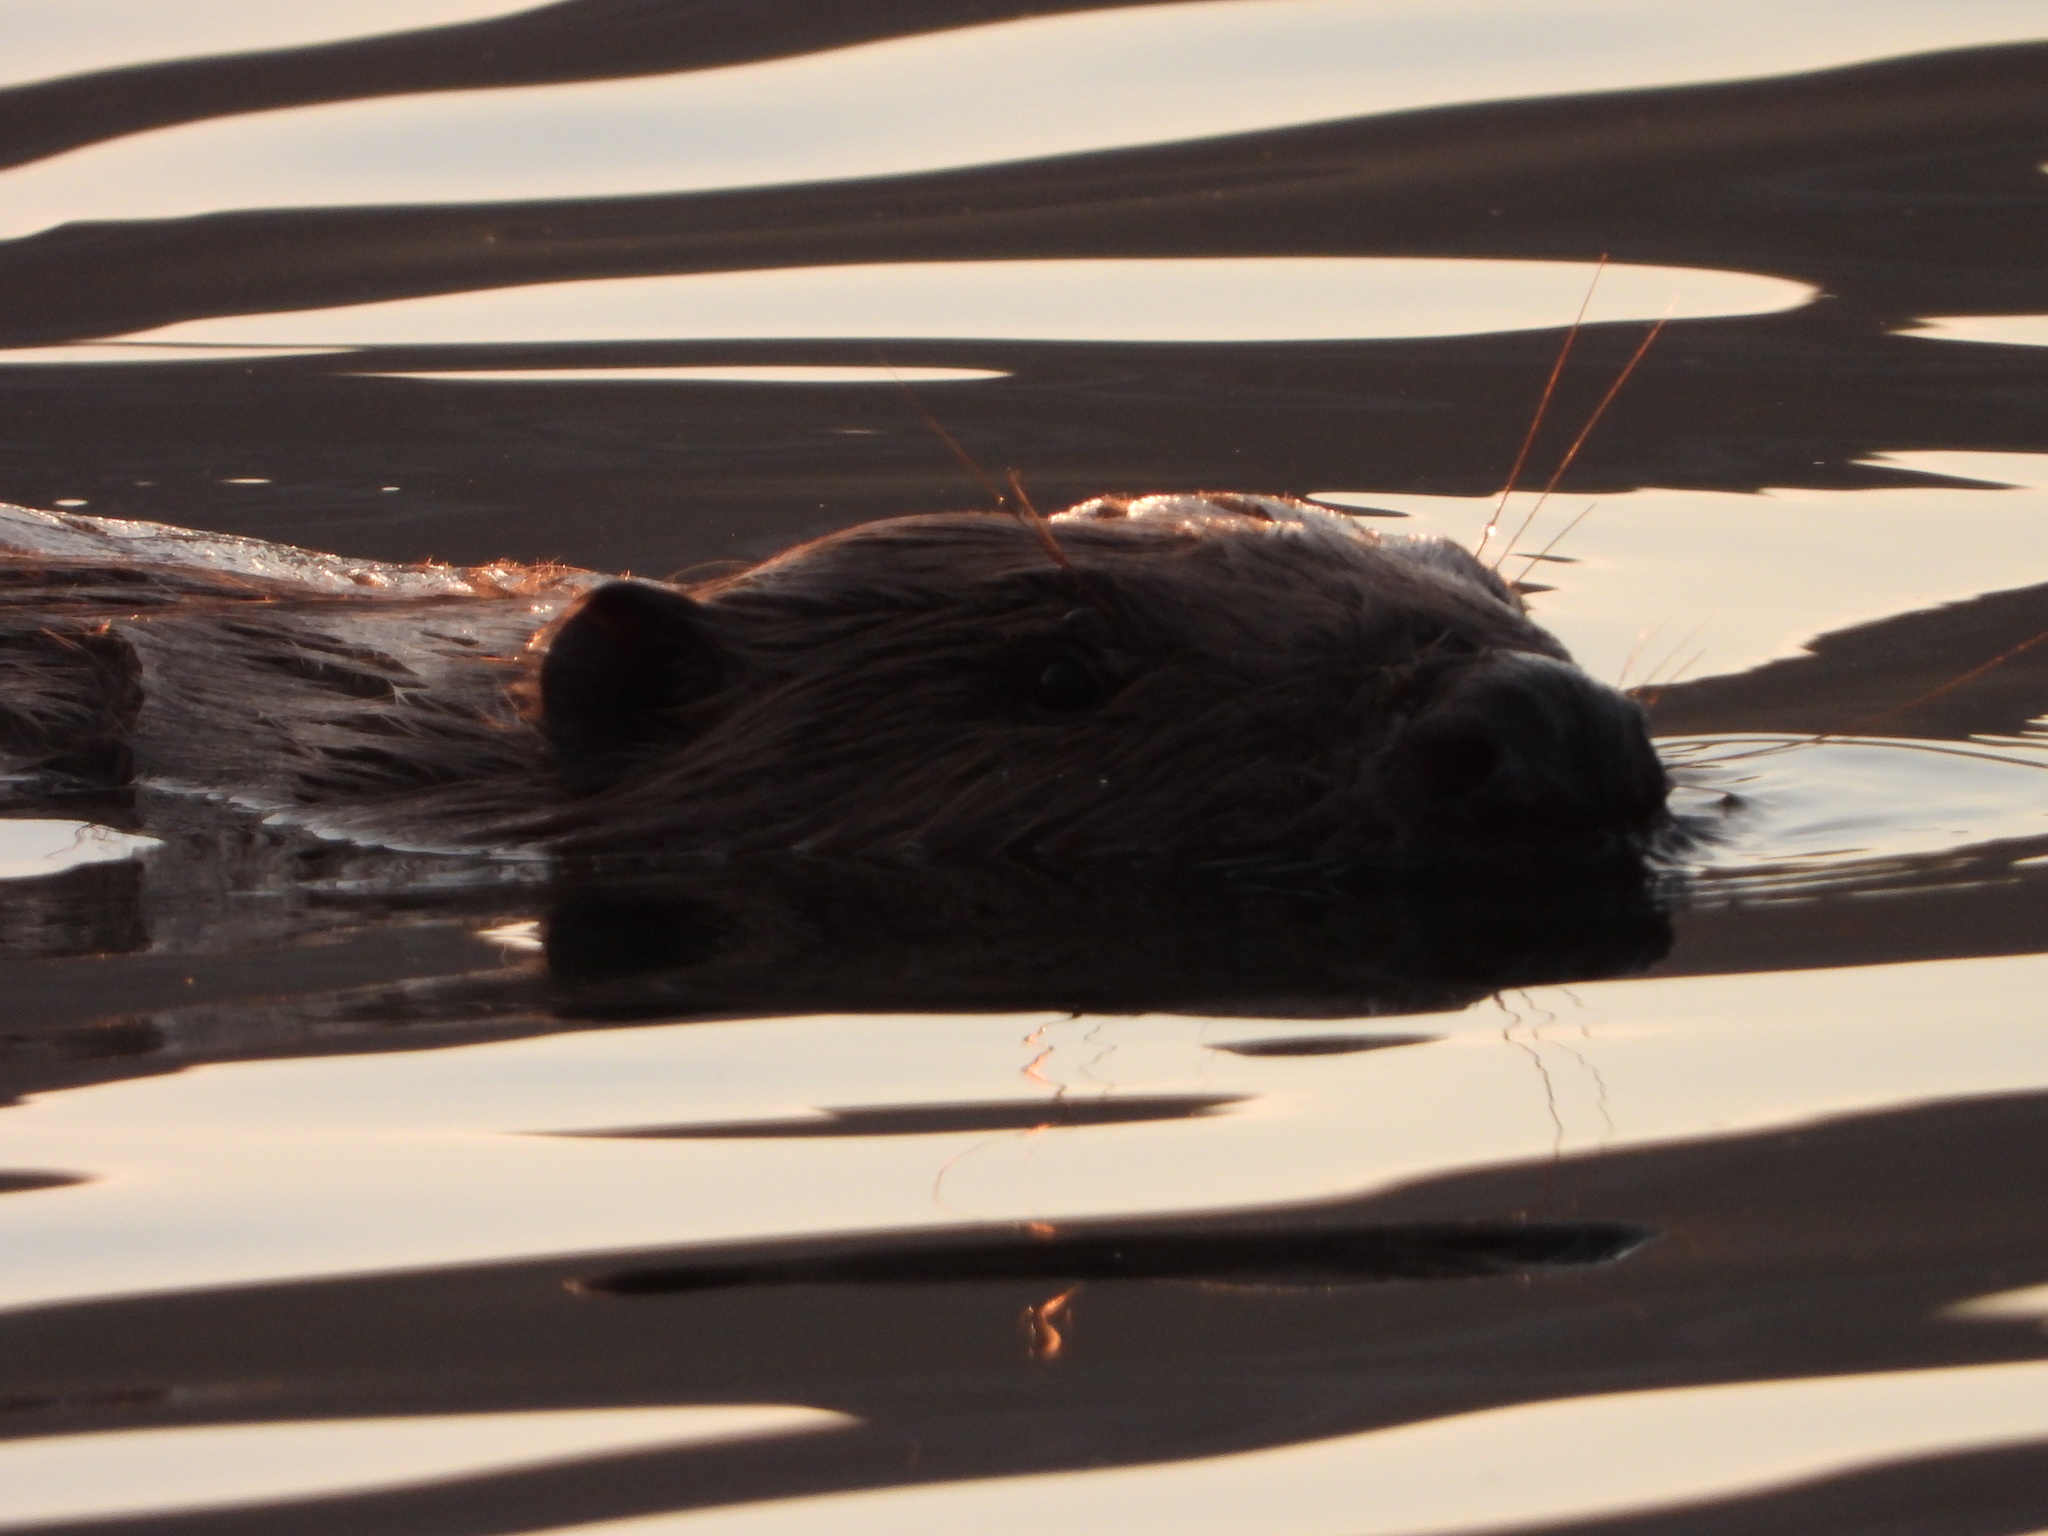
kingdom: Animalia
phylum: Chordata
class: Mammalia
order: Rodentia
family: Castoridae
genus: Castor
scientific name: Castor fiber
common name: Eurasian beaver
